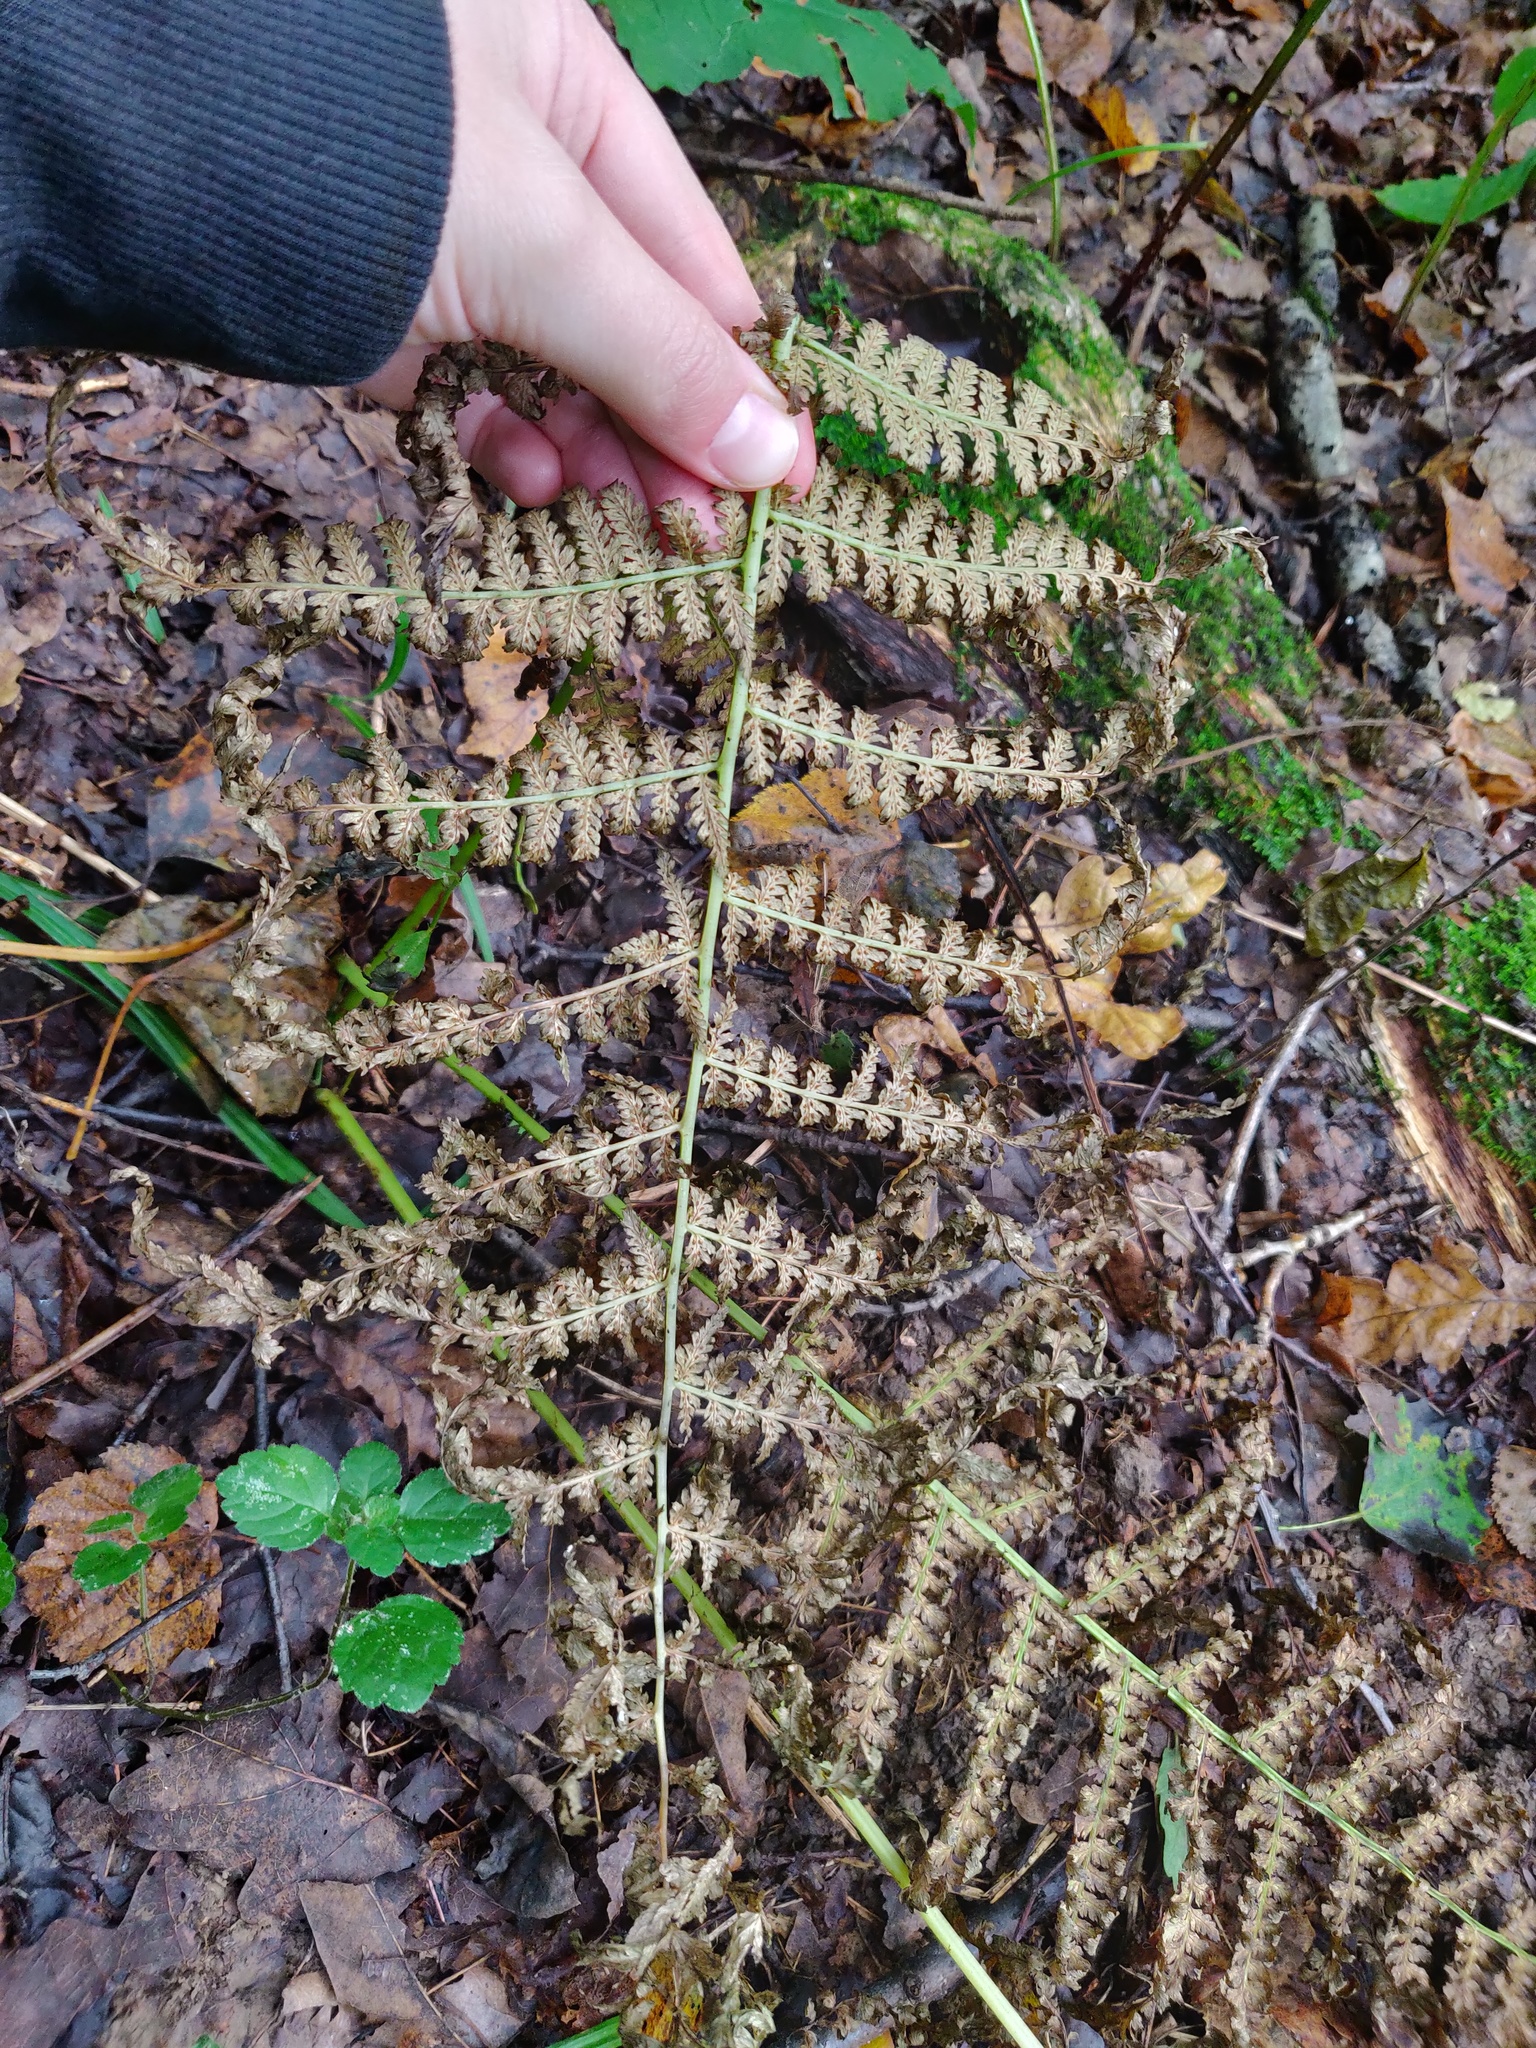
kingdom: Plantae
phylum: Tracheophyta
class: Polypodiopsida
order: Polypodiales
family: Athyriaceae
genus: Athyrium
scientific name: Athyrium filix-femina
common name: Lady fern
